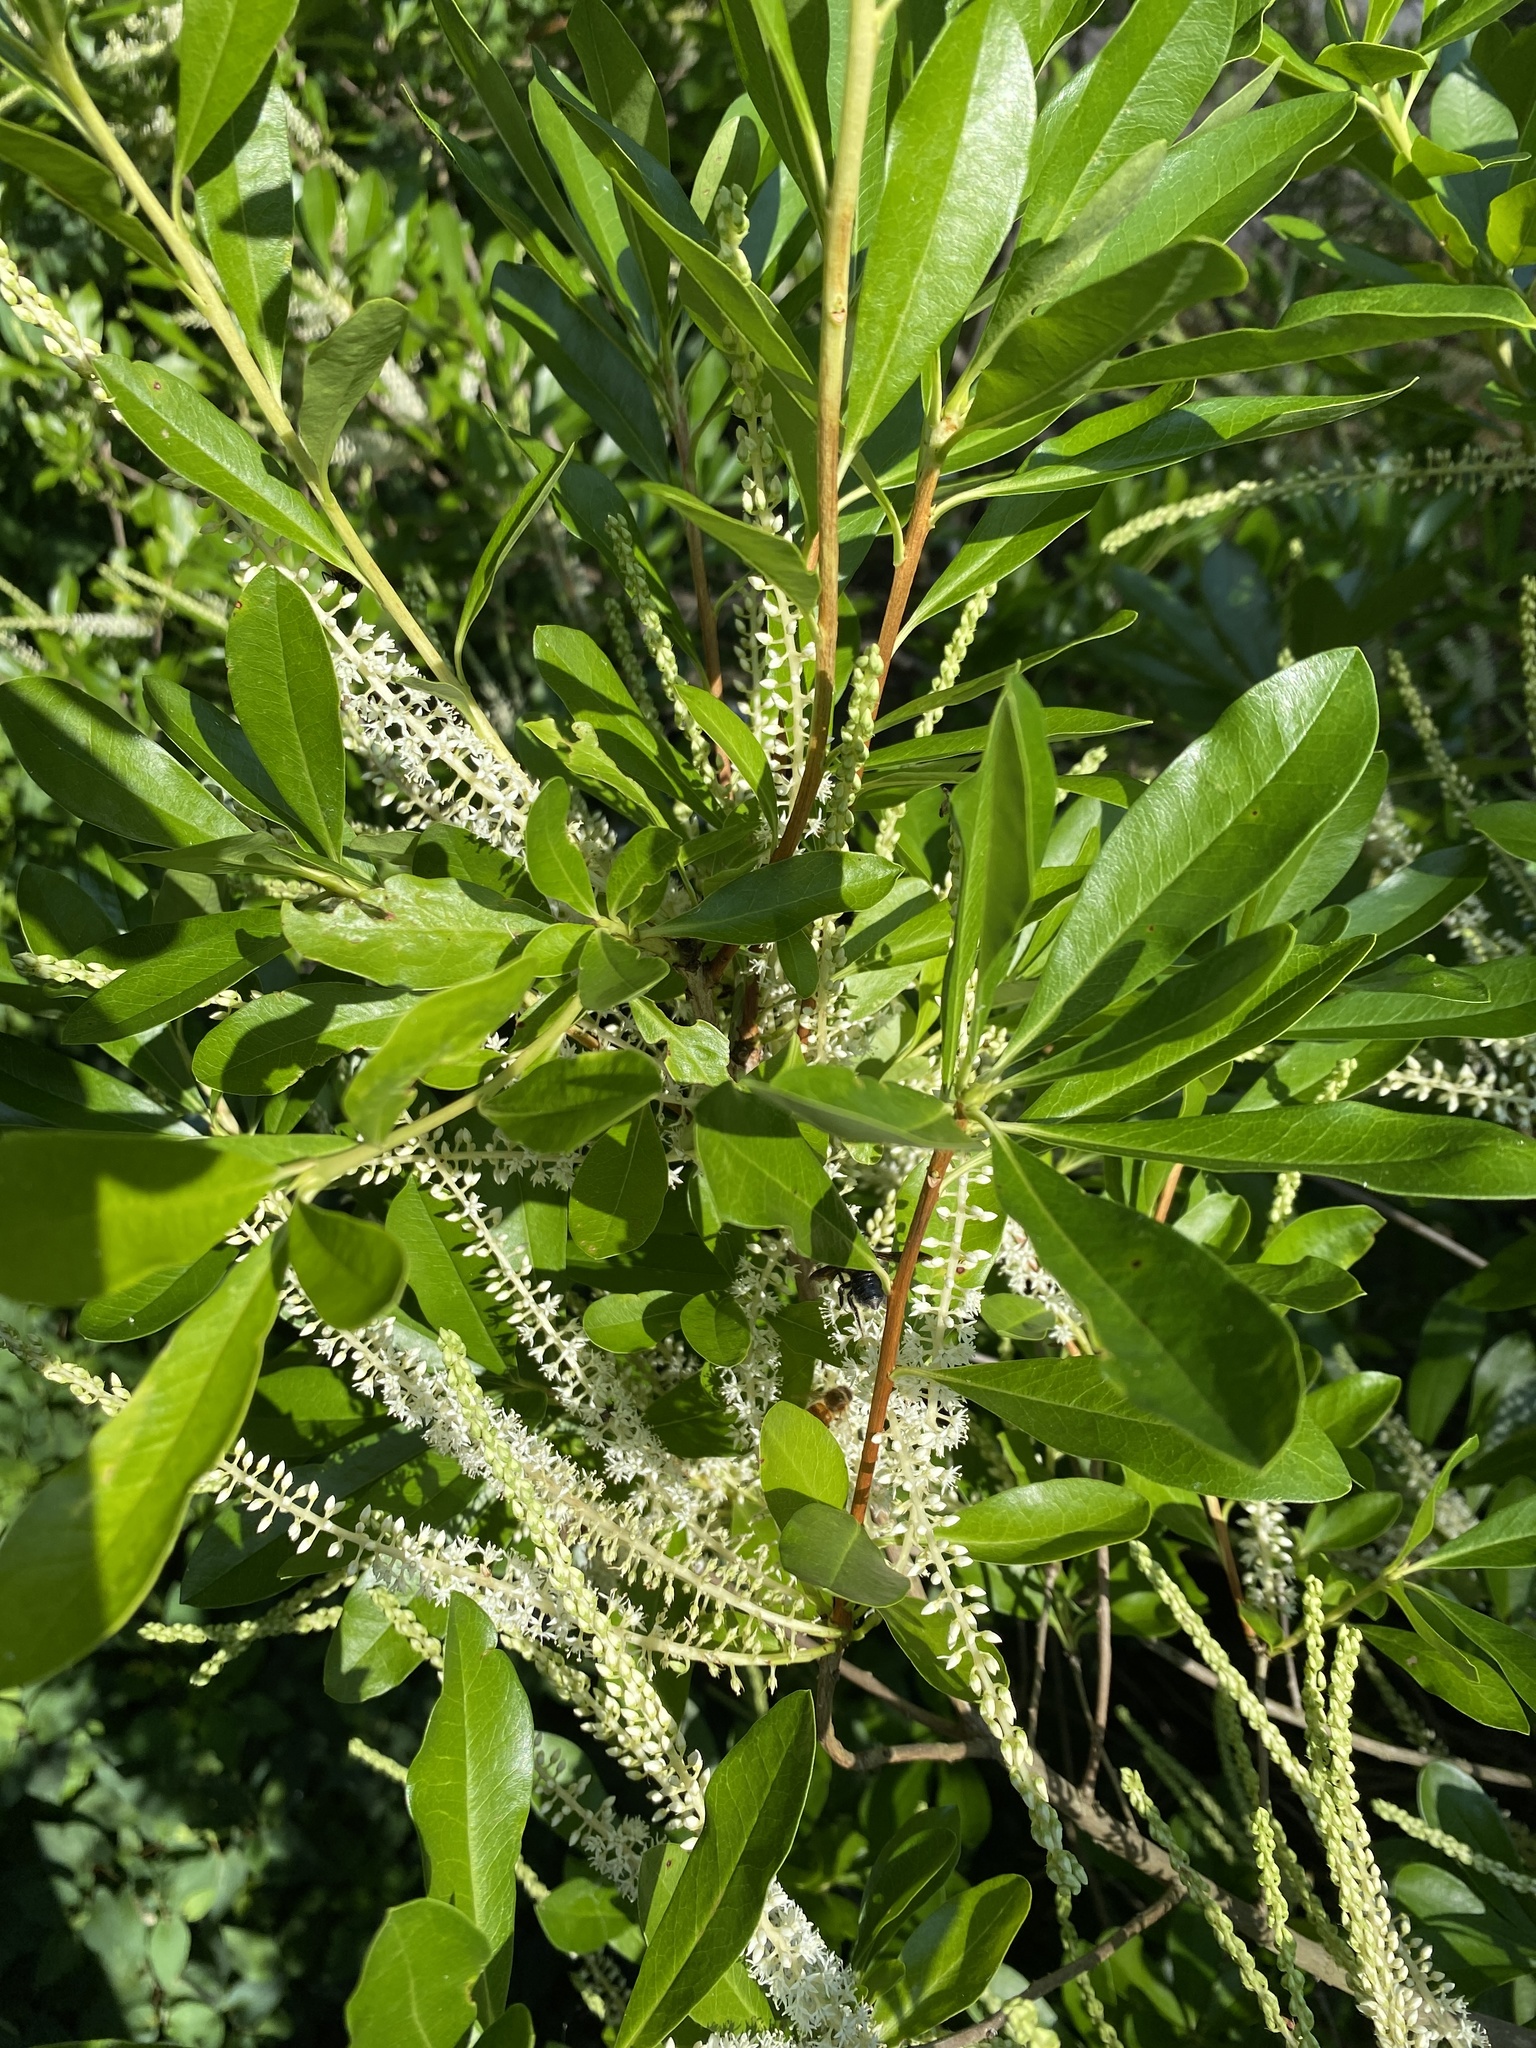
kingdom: Plantae
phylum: Tracheophyta
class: Magnoliopsida
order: Ericales
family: Cyrillaceae
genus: Cyrilla
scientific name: Cyrilla racemiflora
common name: Black titi
